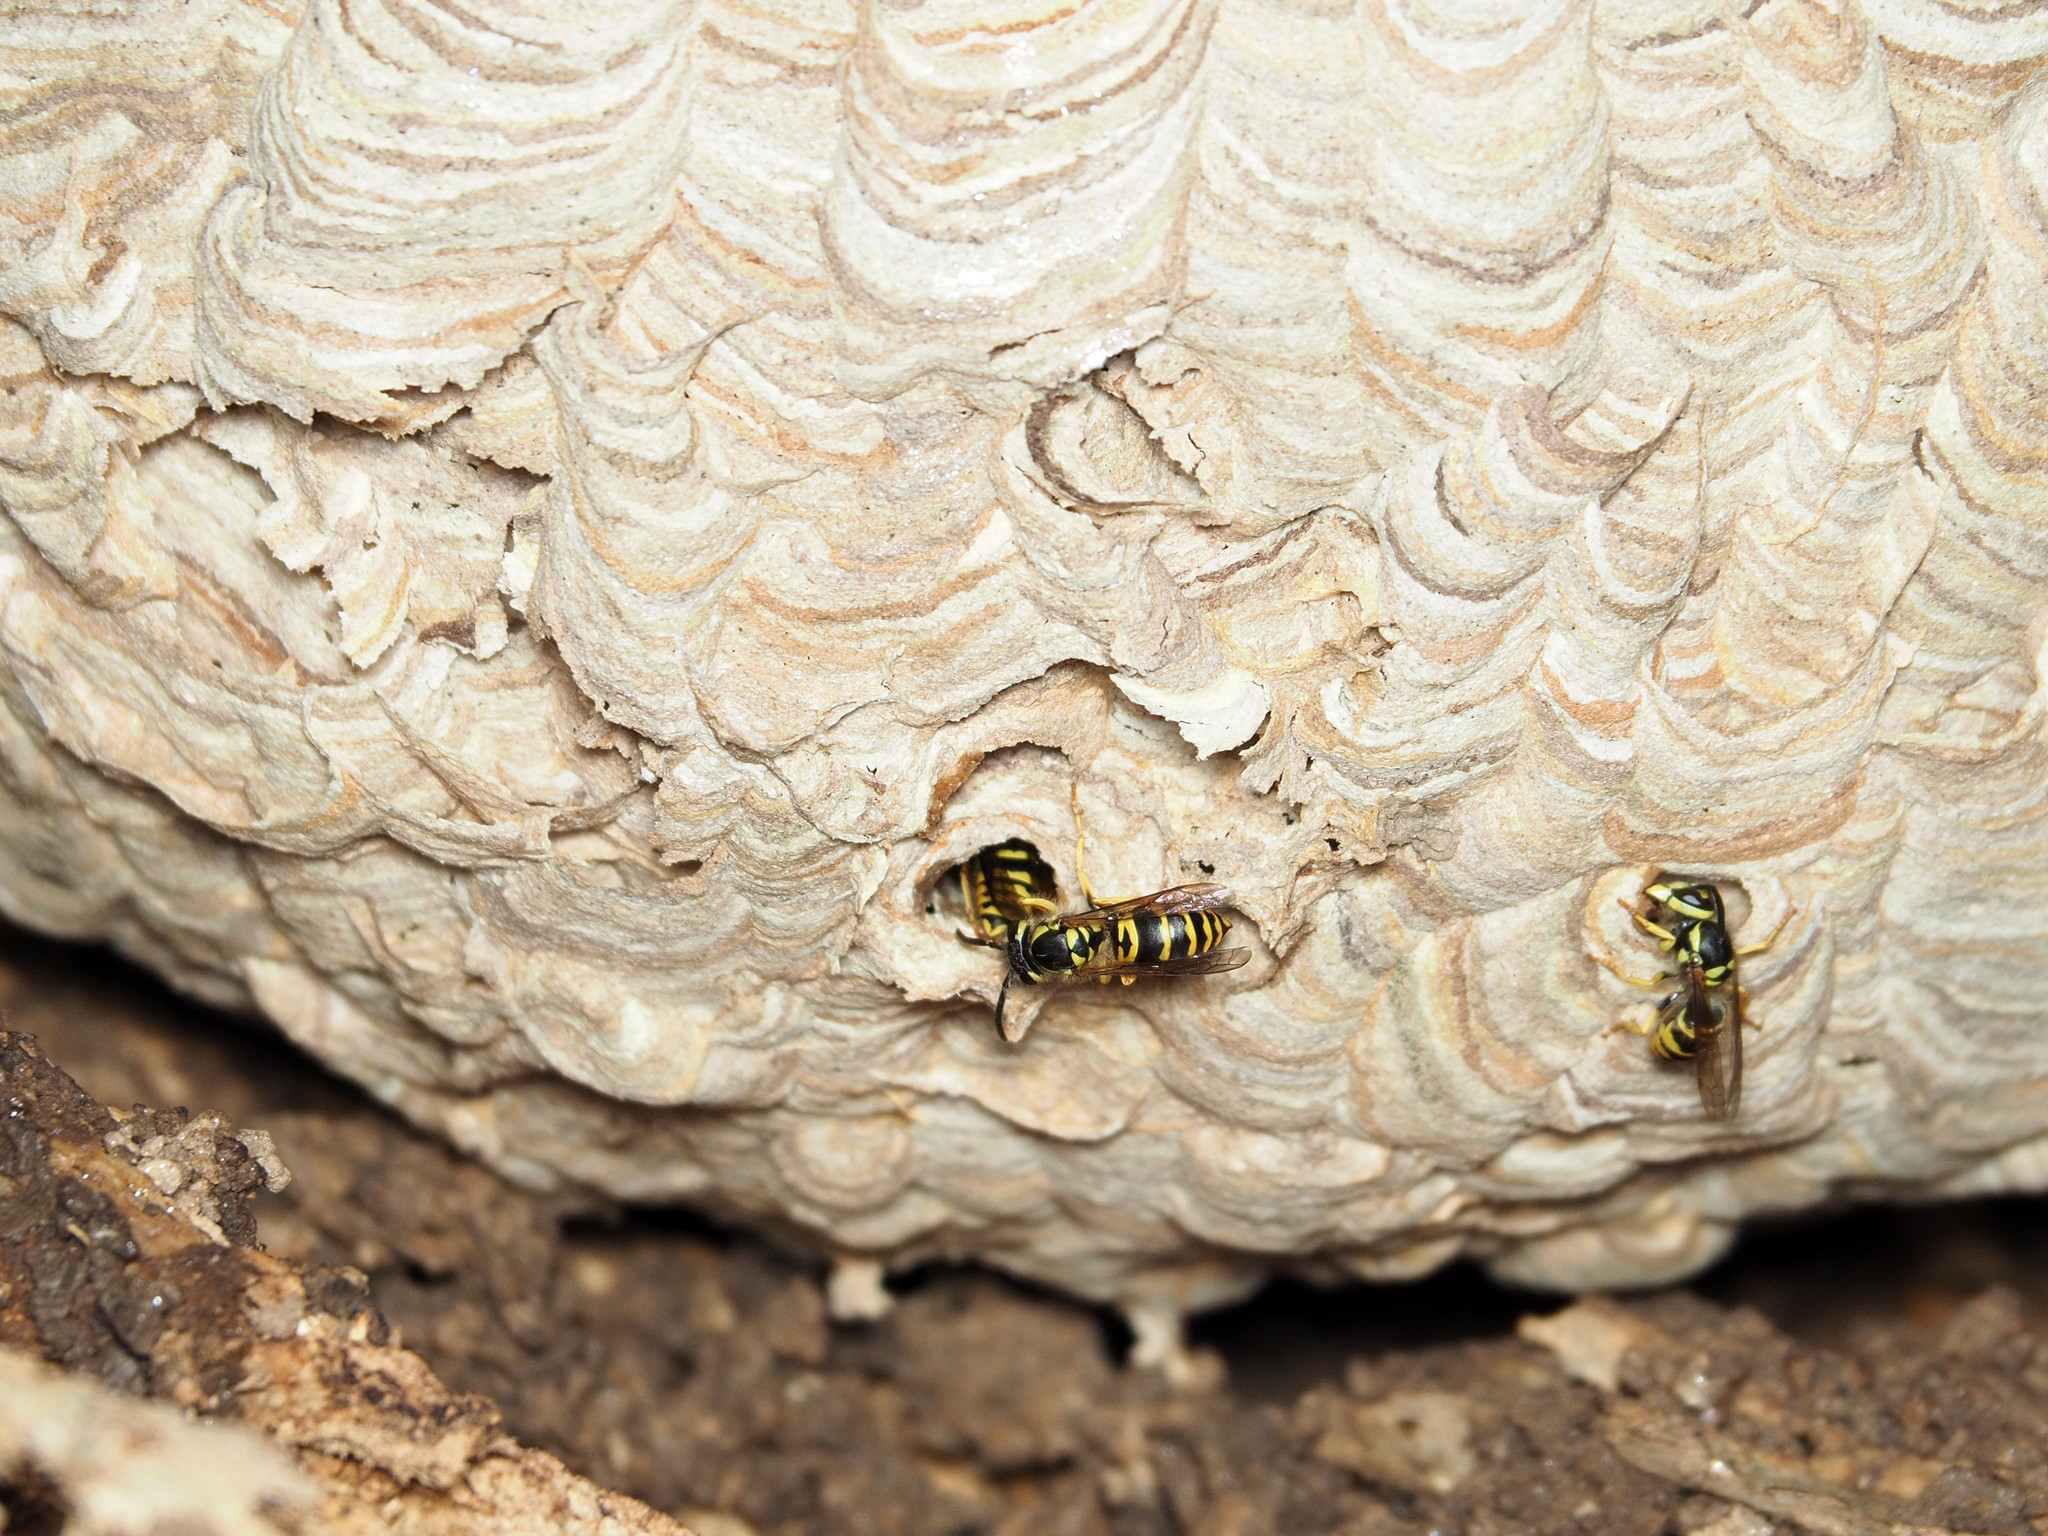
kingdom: Animalia
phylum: Arthropoda
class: Insecta
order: Hymenoptera
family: Vespidae
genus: Vespula
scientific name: Vespula maculifrons
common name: Eastern yellowjacket
